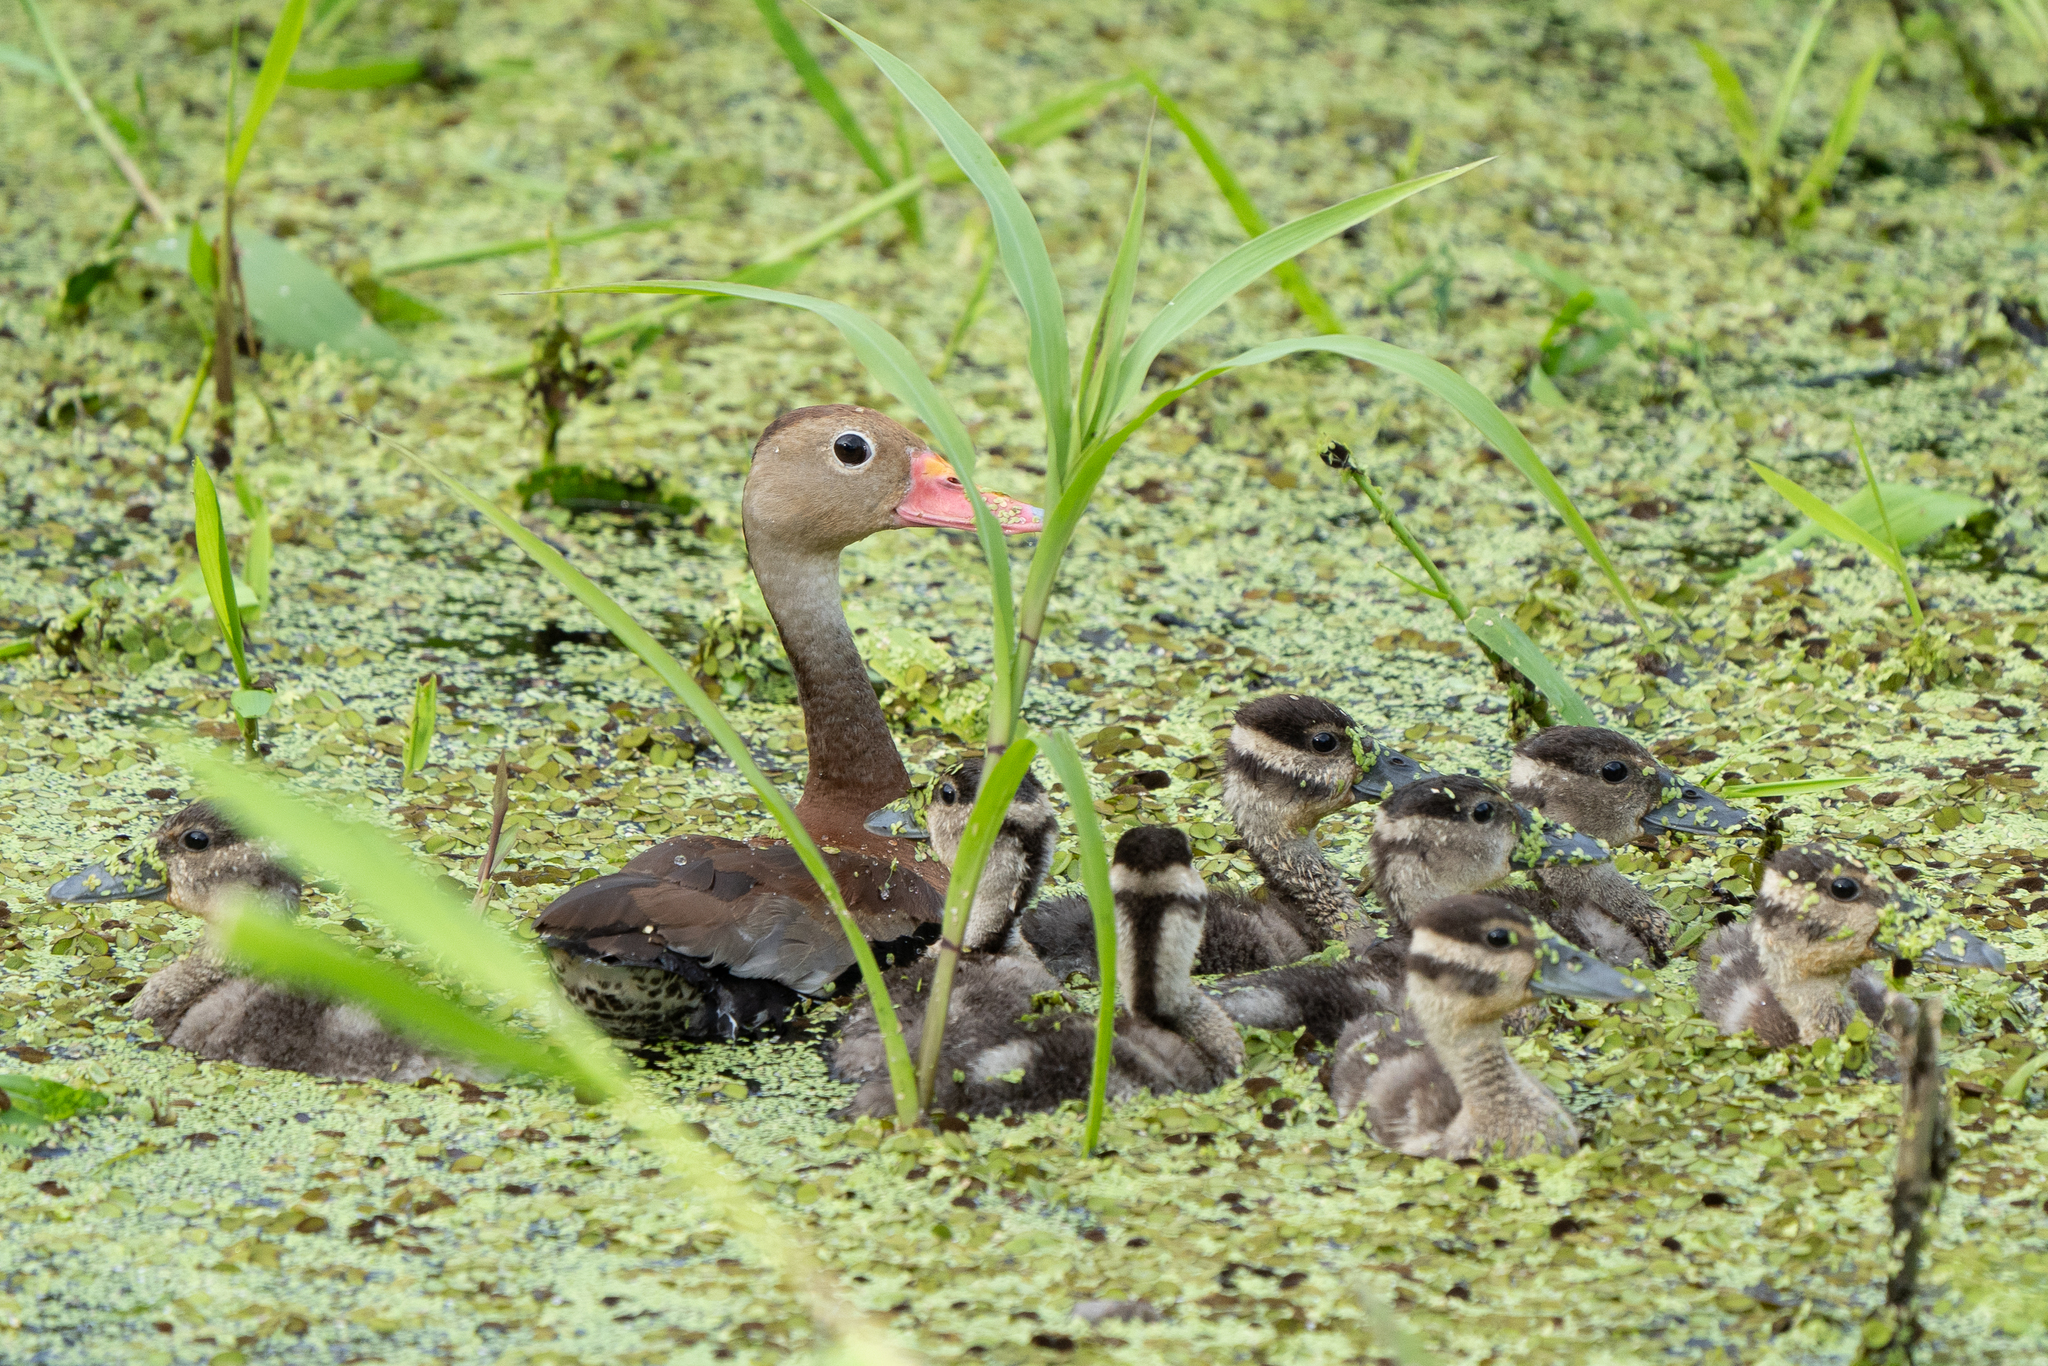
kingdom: Animalia
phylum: Chordata
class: Aves
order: Anseriformes
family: Anatidae
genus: Dendrocygna
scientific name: Dendrocygna autumnalis
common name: Black-bellied whistling duck
